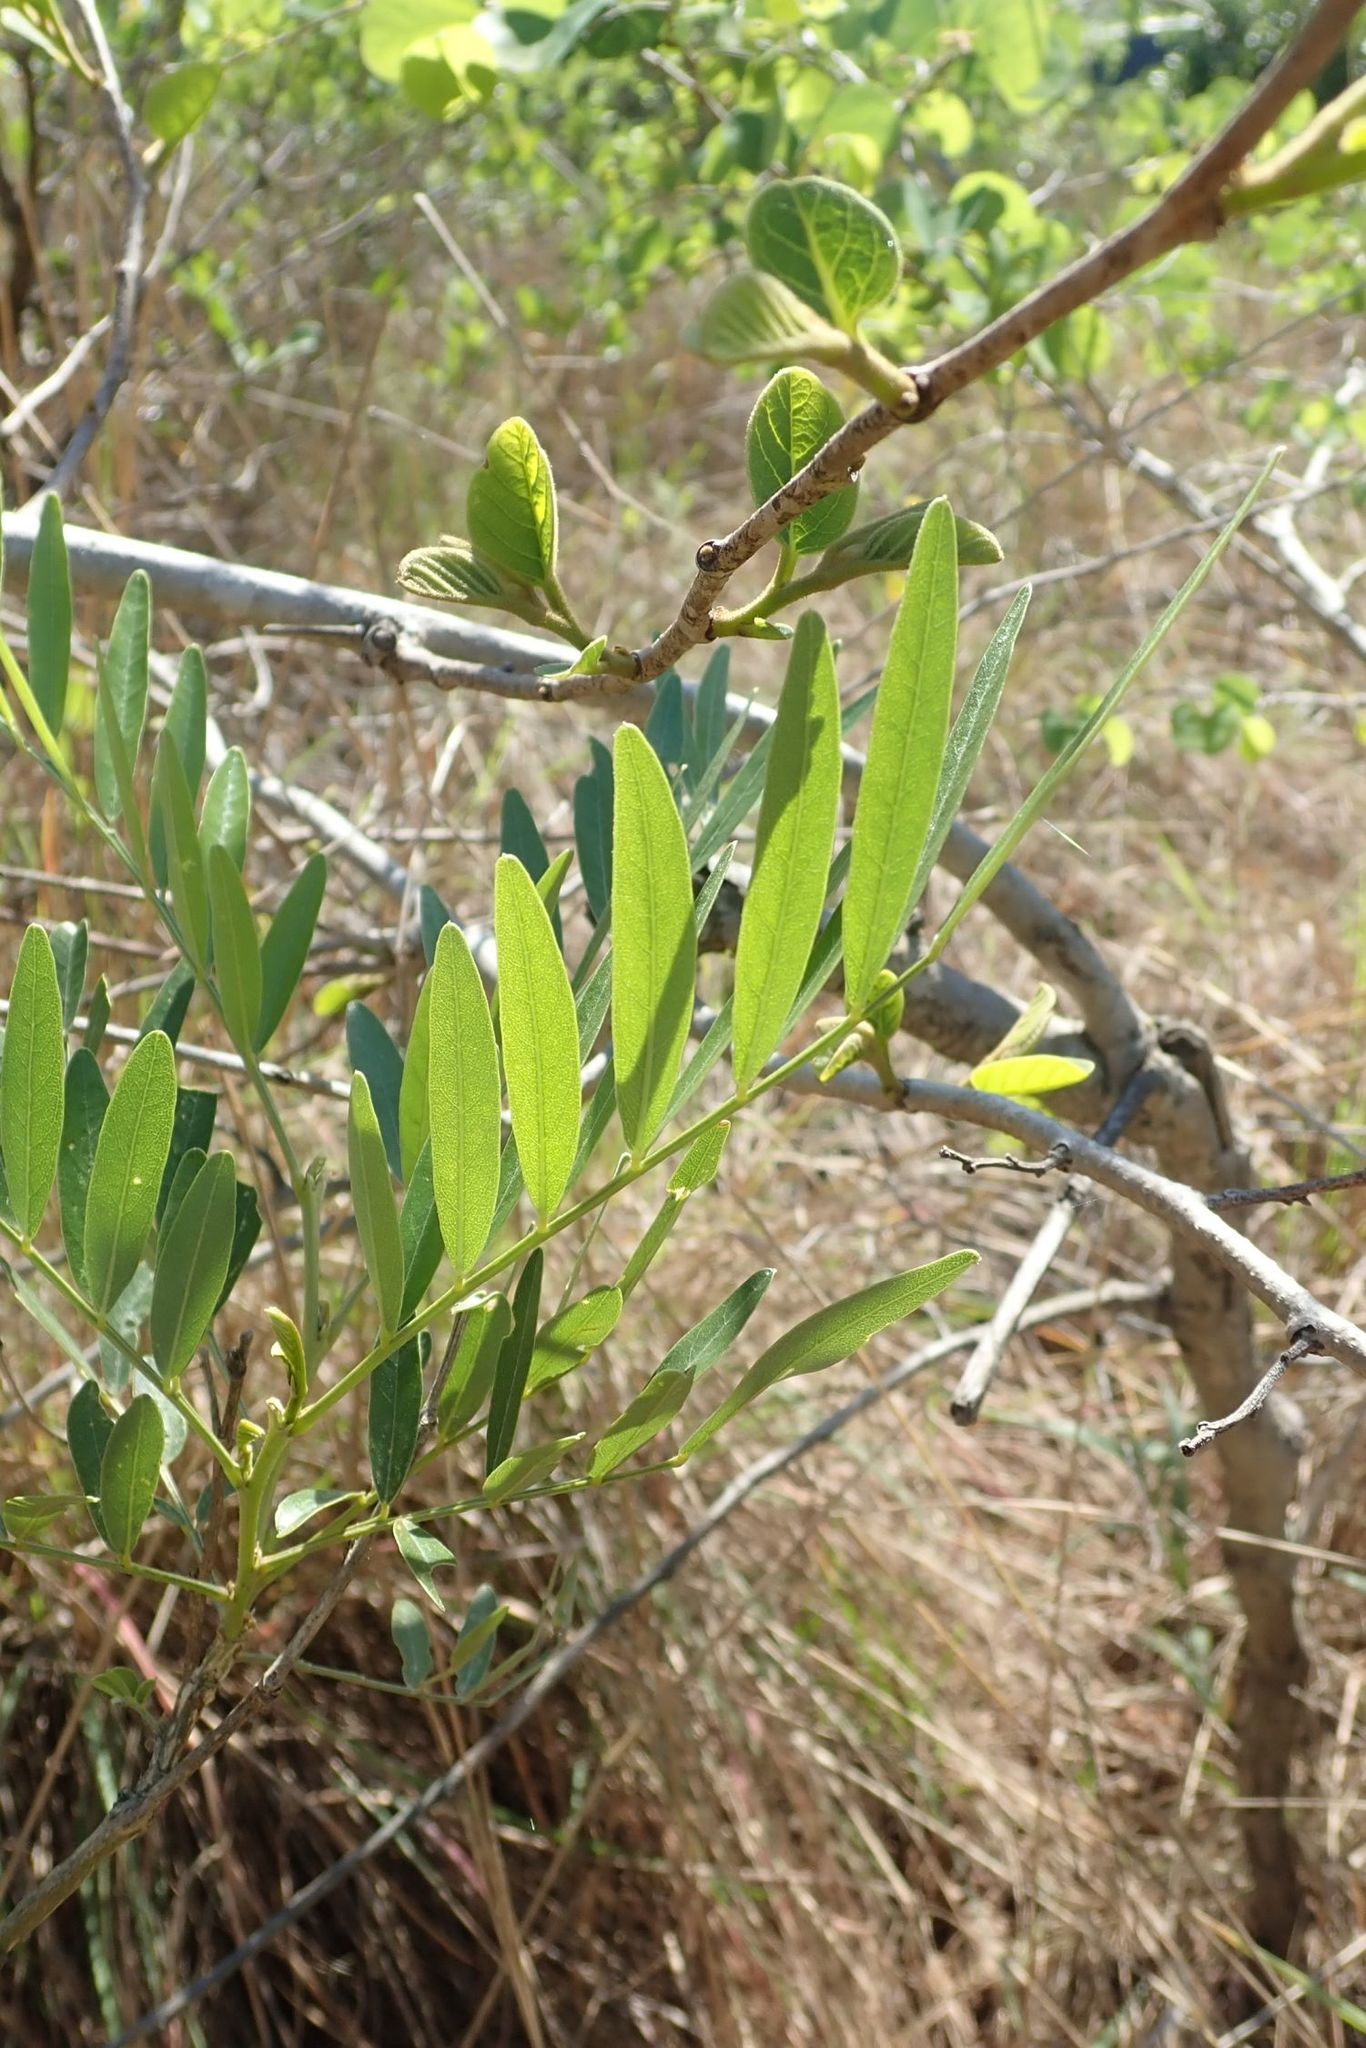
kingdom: Plantae
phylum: Tracheophyta
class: Magnoliopsida
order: Fabales
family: Fabaceae
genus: Mundulea
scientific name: Mundulea sericea
